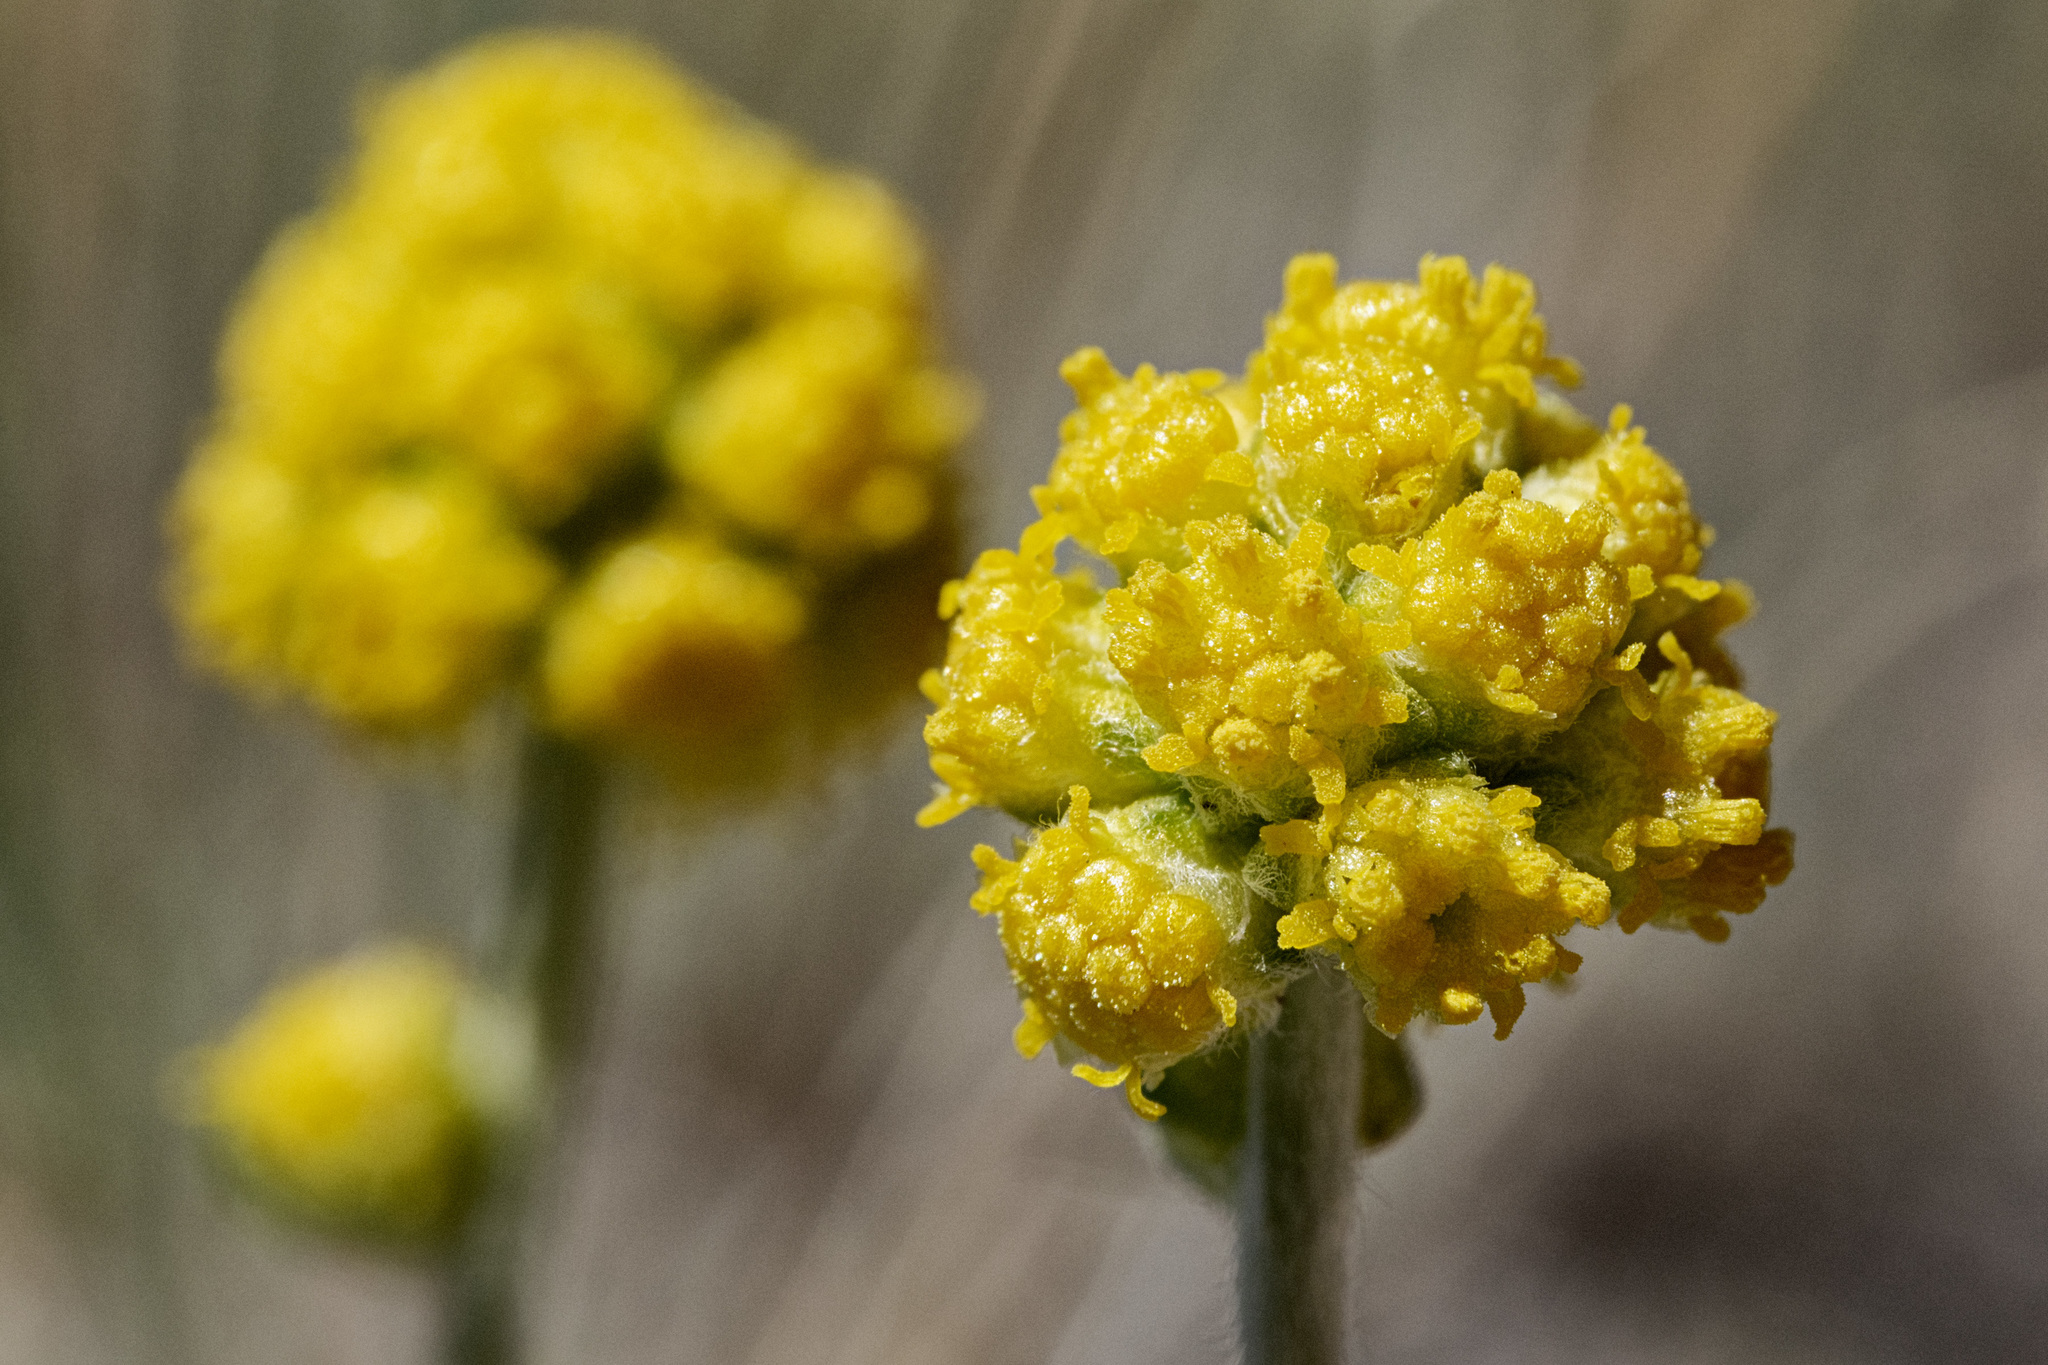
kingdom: Plantae
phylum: Tracheophyta
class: Magnoliopsida
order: Asterales
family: Asteraceae
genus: Artemisia
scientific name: Artemisia capitata
